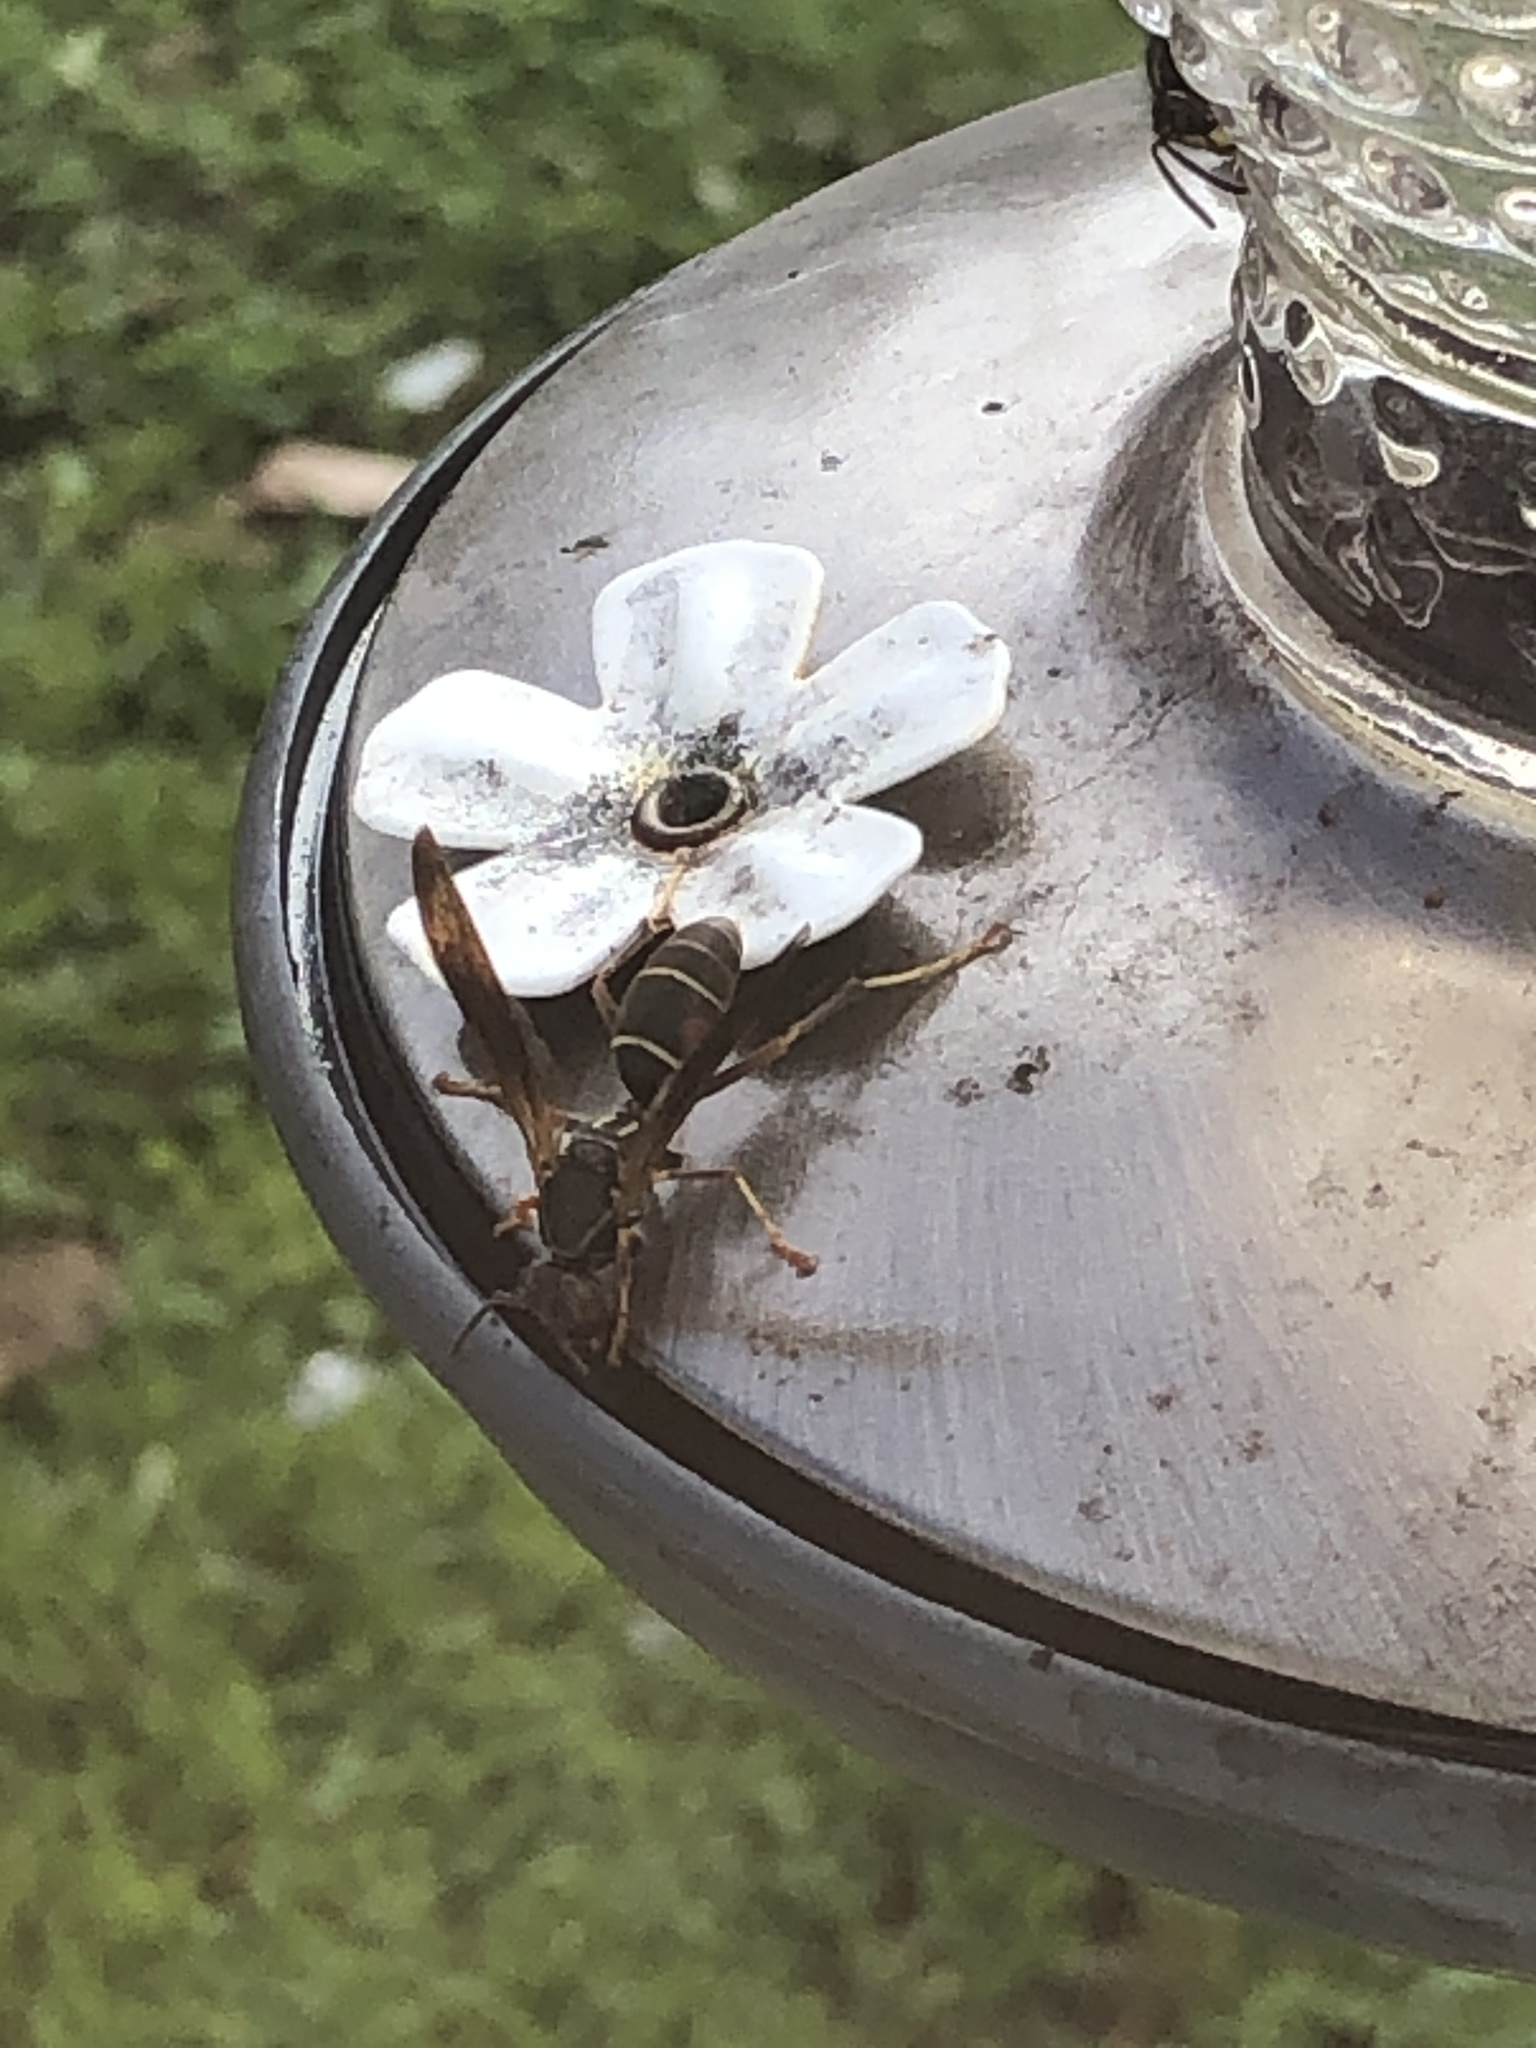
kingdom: Animalia
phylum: Arthropoda
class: Insecta
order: Hymenoptera
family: Eumenidae
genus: Polistes
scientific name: Polistes fuscatus
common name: Dark paper wasp
